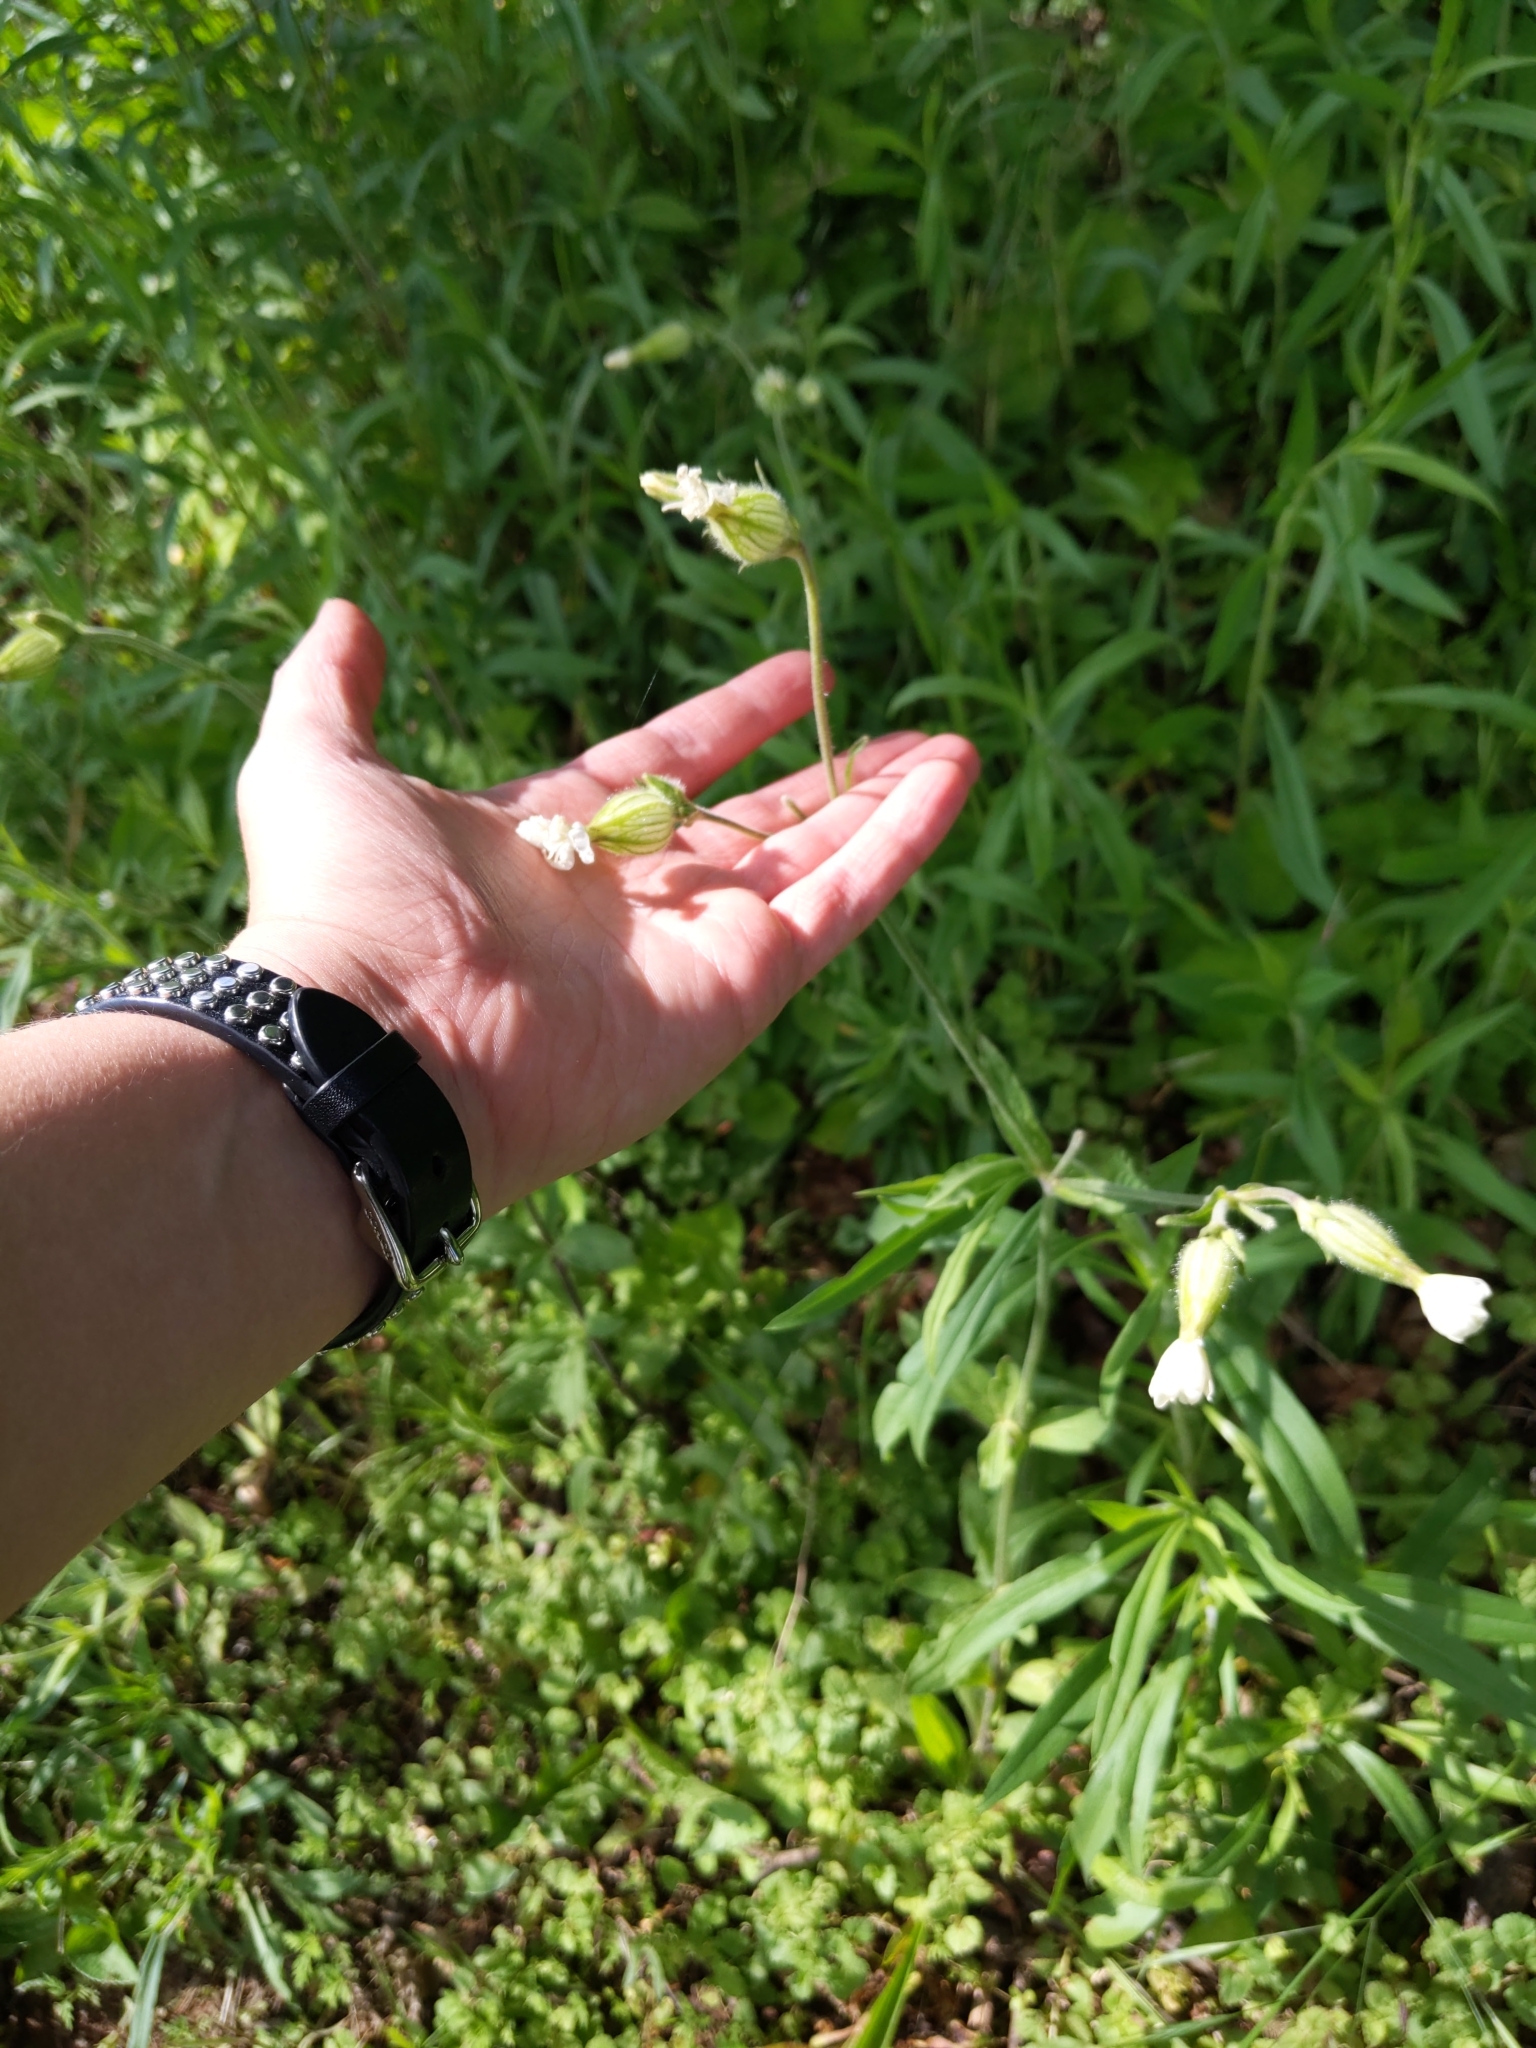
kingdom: Plantae
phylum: Tracheophyta
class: Magnoliopsida
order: Caryophyllales
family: Caryophyllaceae
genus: Silene
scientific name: Silene latifolia
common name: White campion
